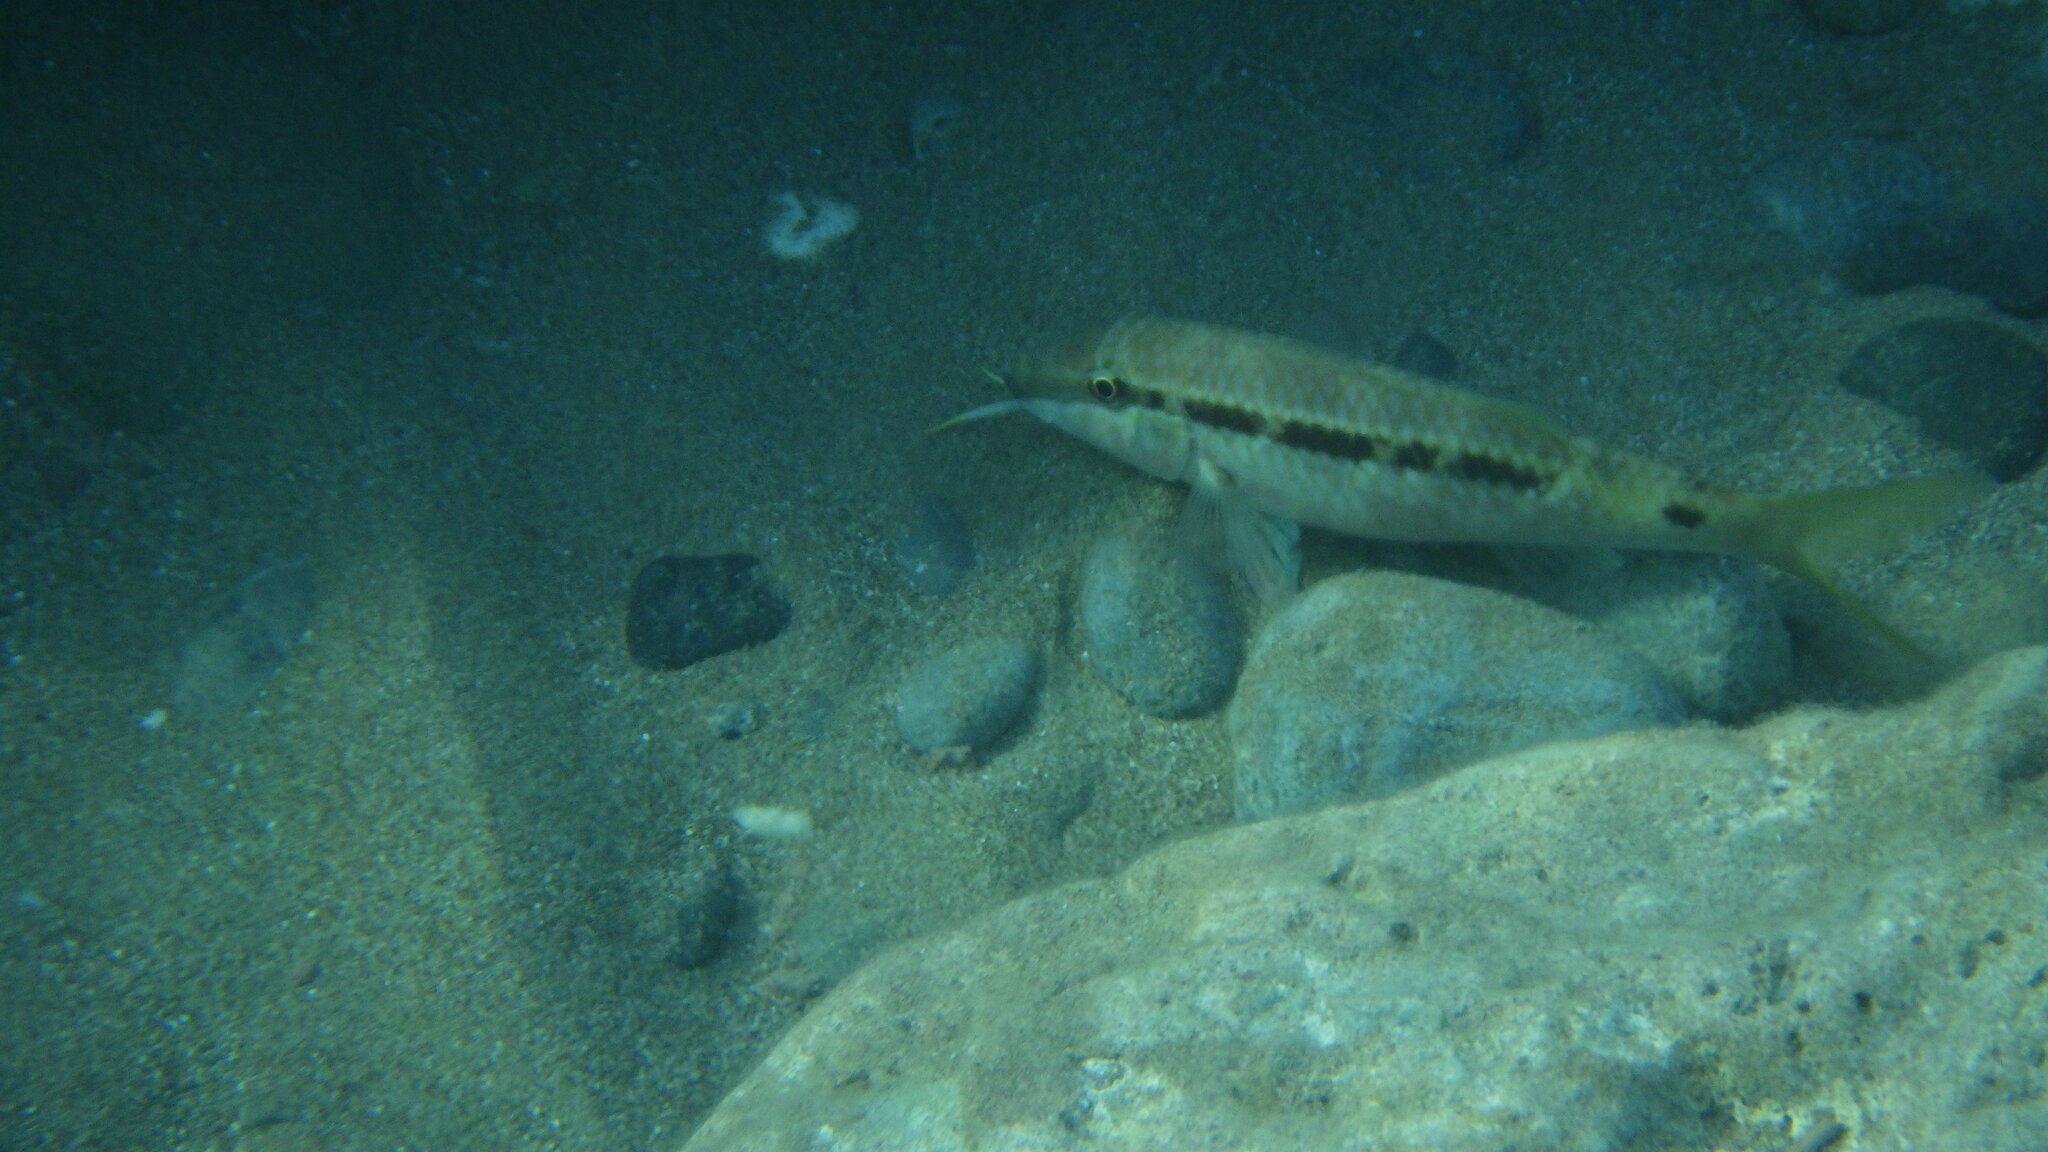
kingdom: Animalia
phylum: Chordata
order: Perciformes
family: Mullidae
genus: Parupeneus
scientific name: Parupeneus forsskali
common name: Red sea goatfish
